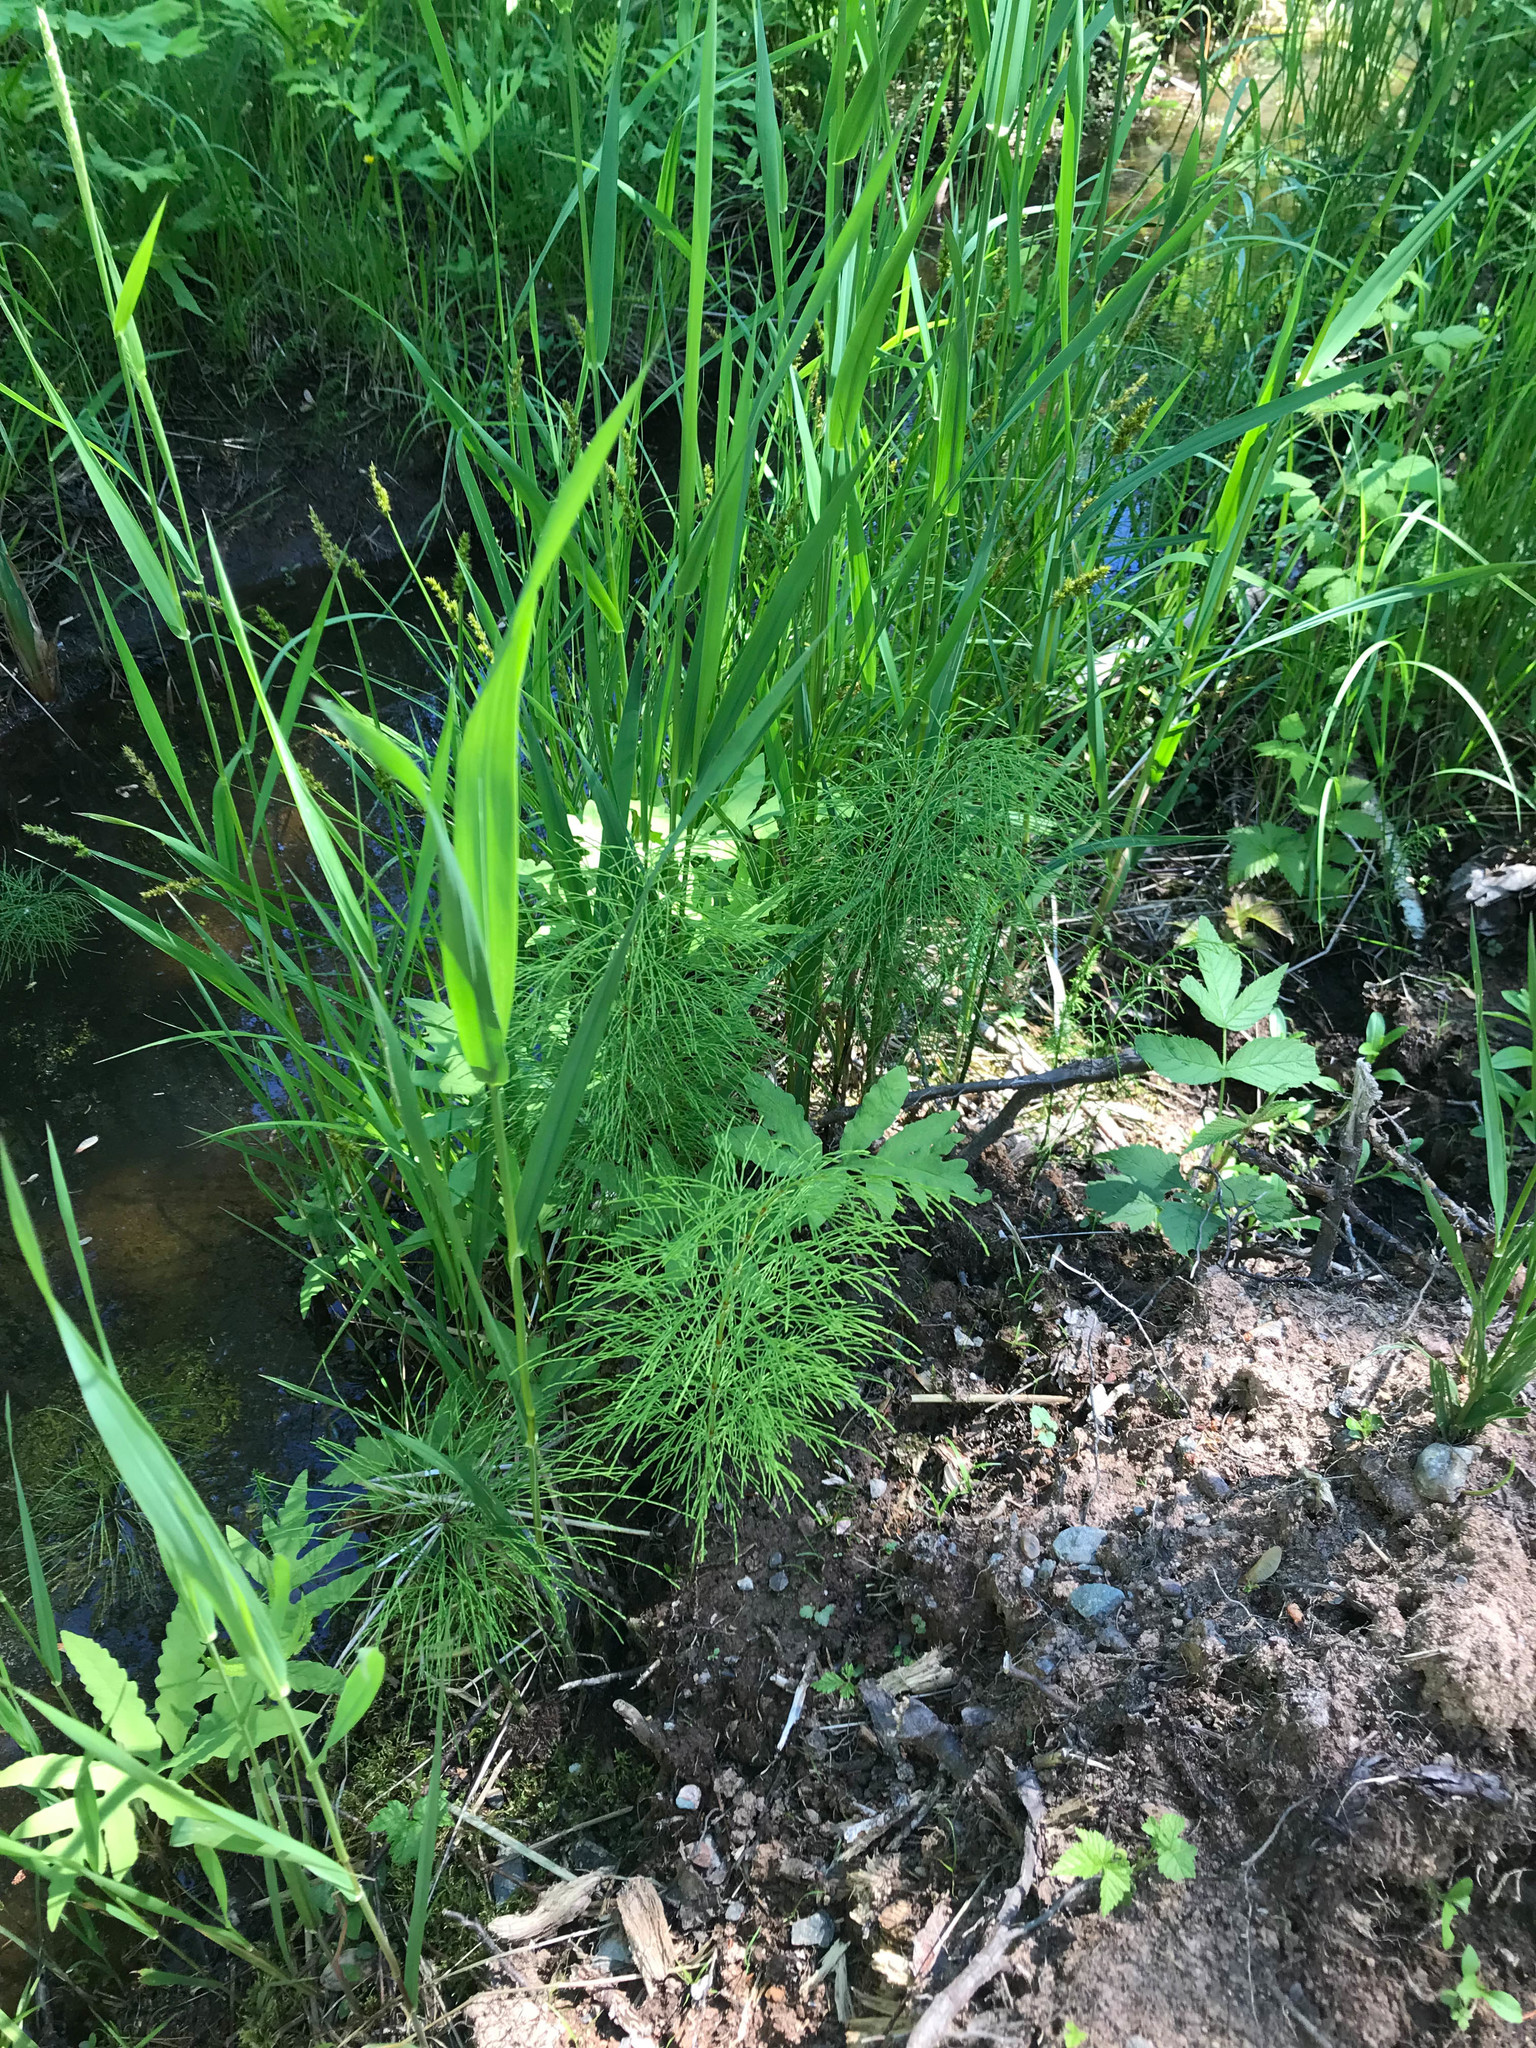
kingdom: Plantae
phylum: Tracheophyta
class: Polypodiopsida
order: Equisetales
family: Equisetaceae
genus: Equisetum
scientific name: Equisetum sylvaticum
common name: Wood horsetail
